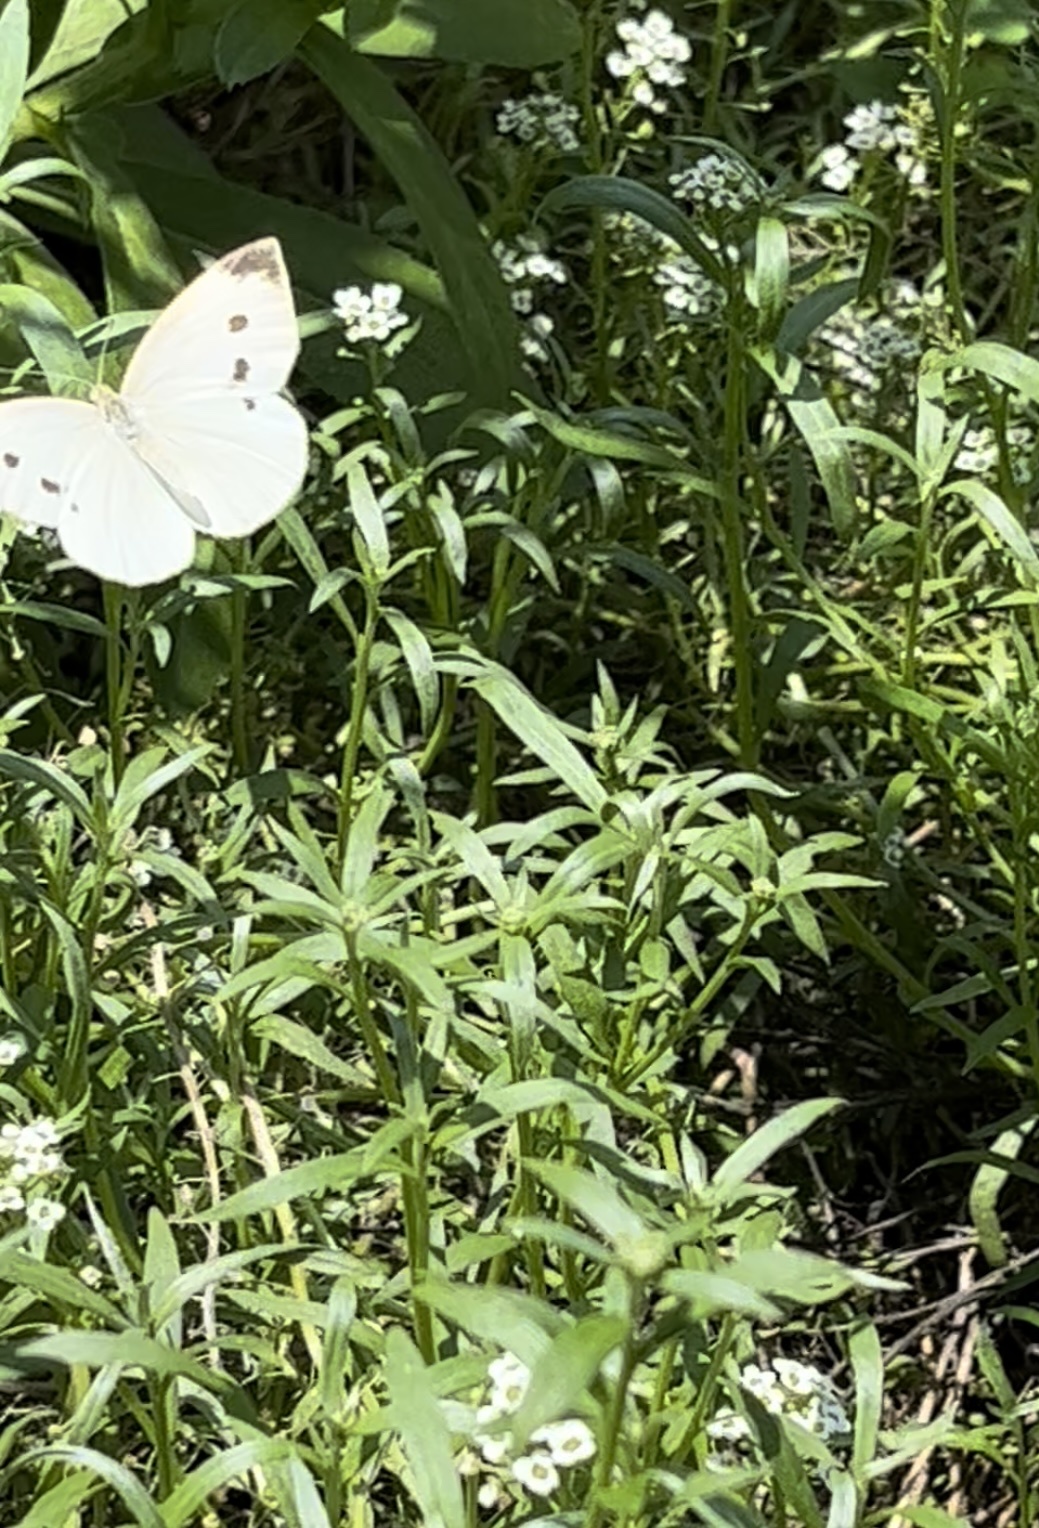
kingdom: Animalia
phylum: Arthropoda
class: Insecta
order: Lepidoptera
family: Pieridae
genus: Pieris
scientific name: Pieris rapae
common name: Small white
